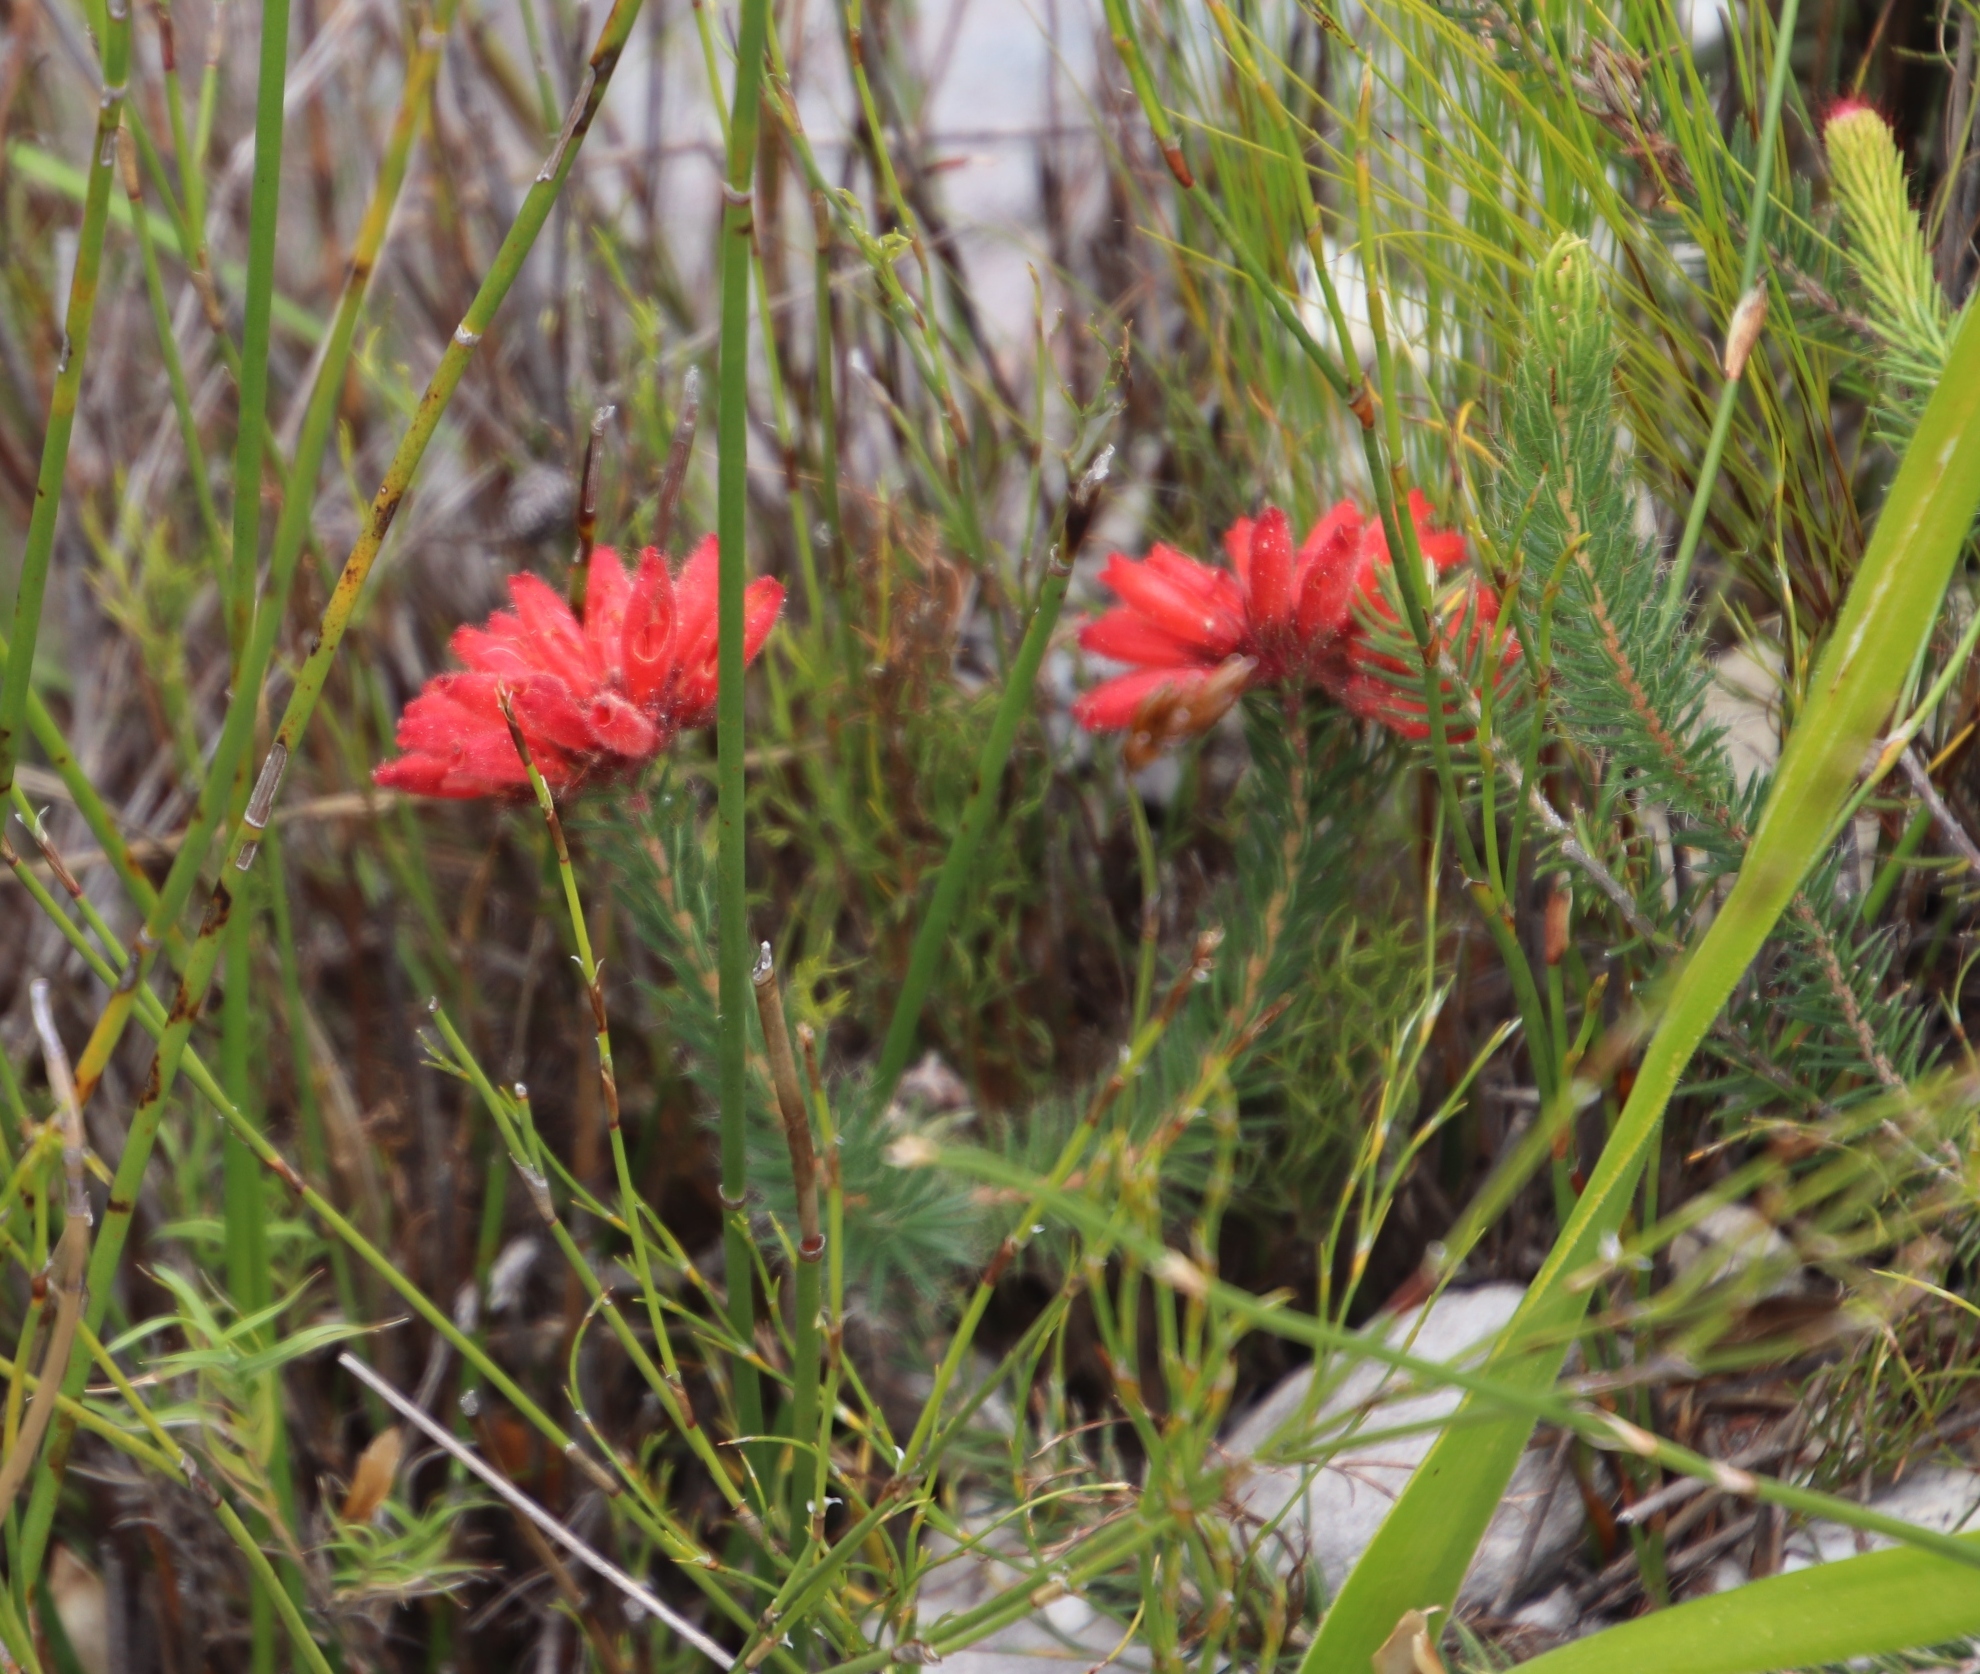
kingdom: Plantae
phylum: Tracheophyta
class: Magnoliopsida
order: Ericales
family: Ericaceae
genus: Erica
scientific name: Erica cerinthoides
